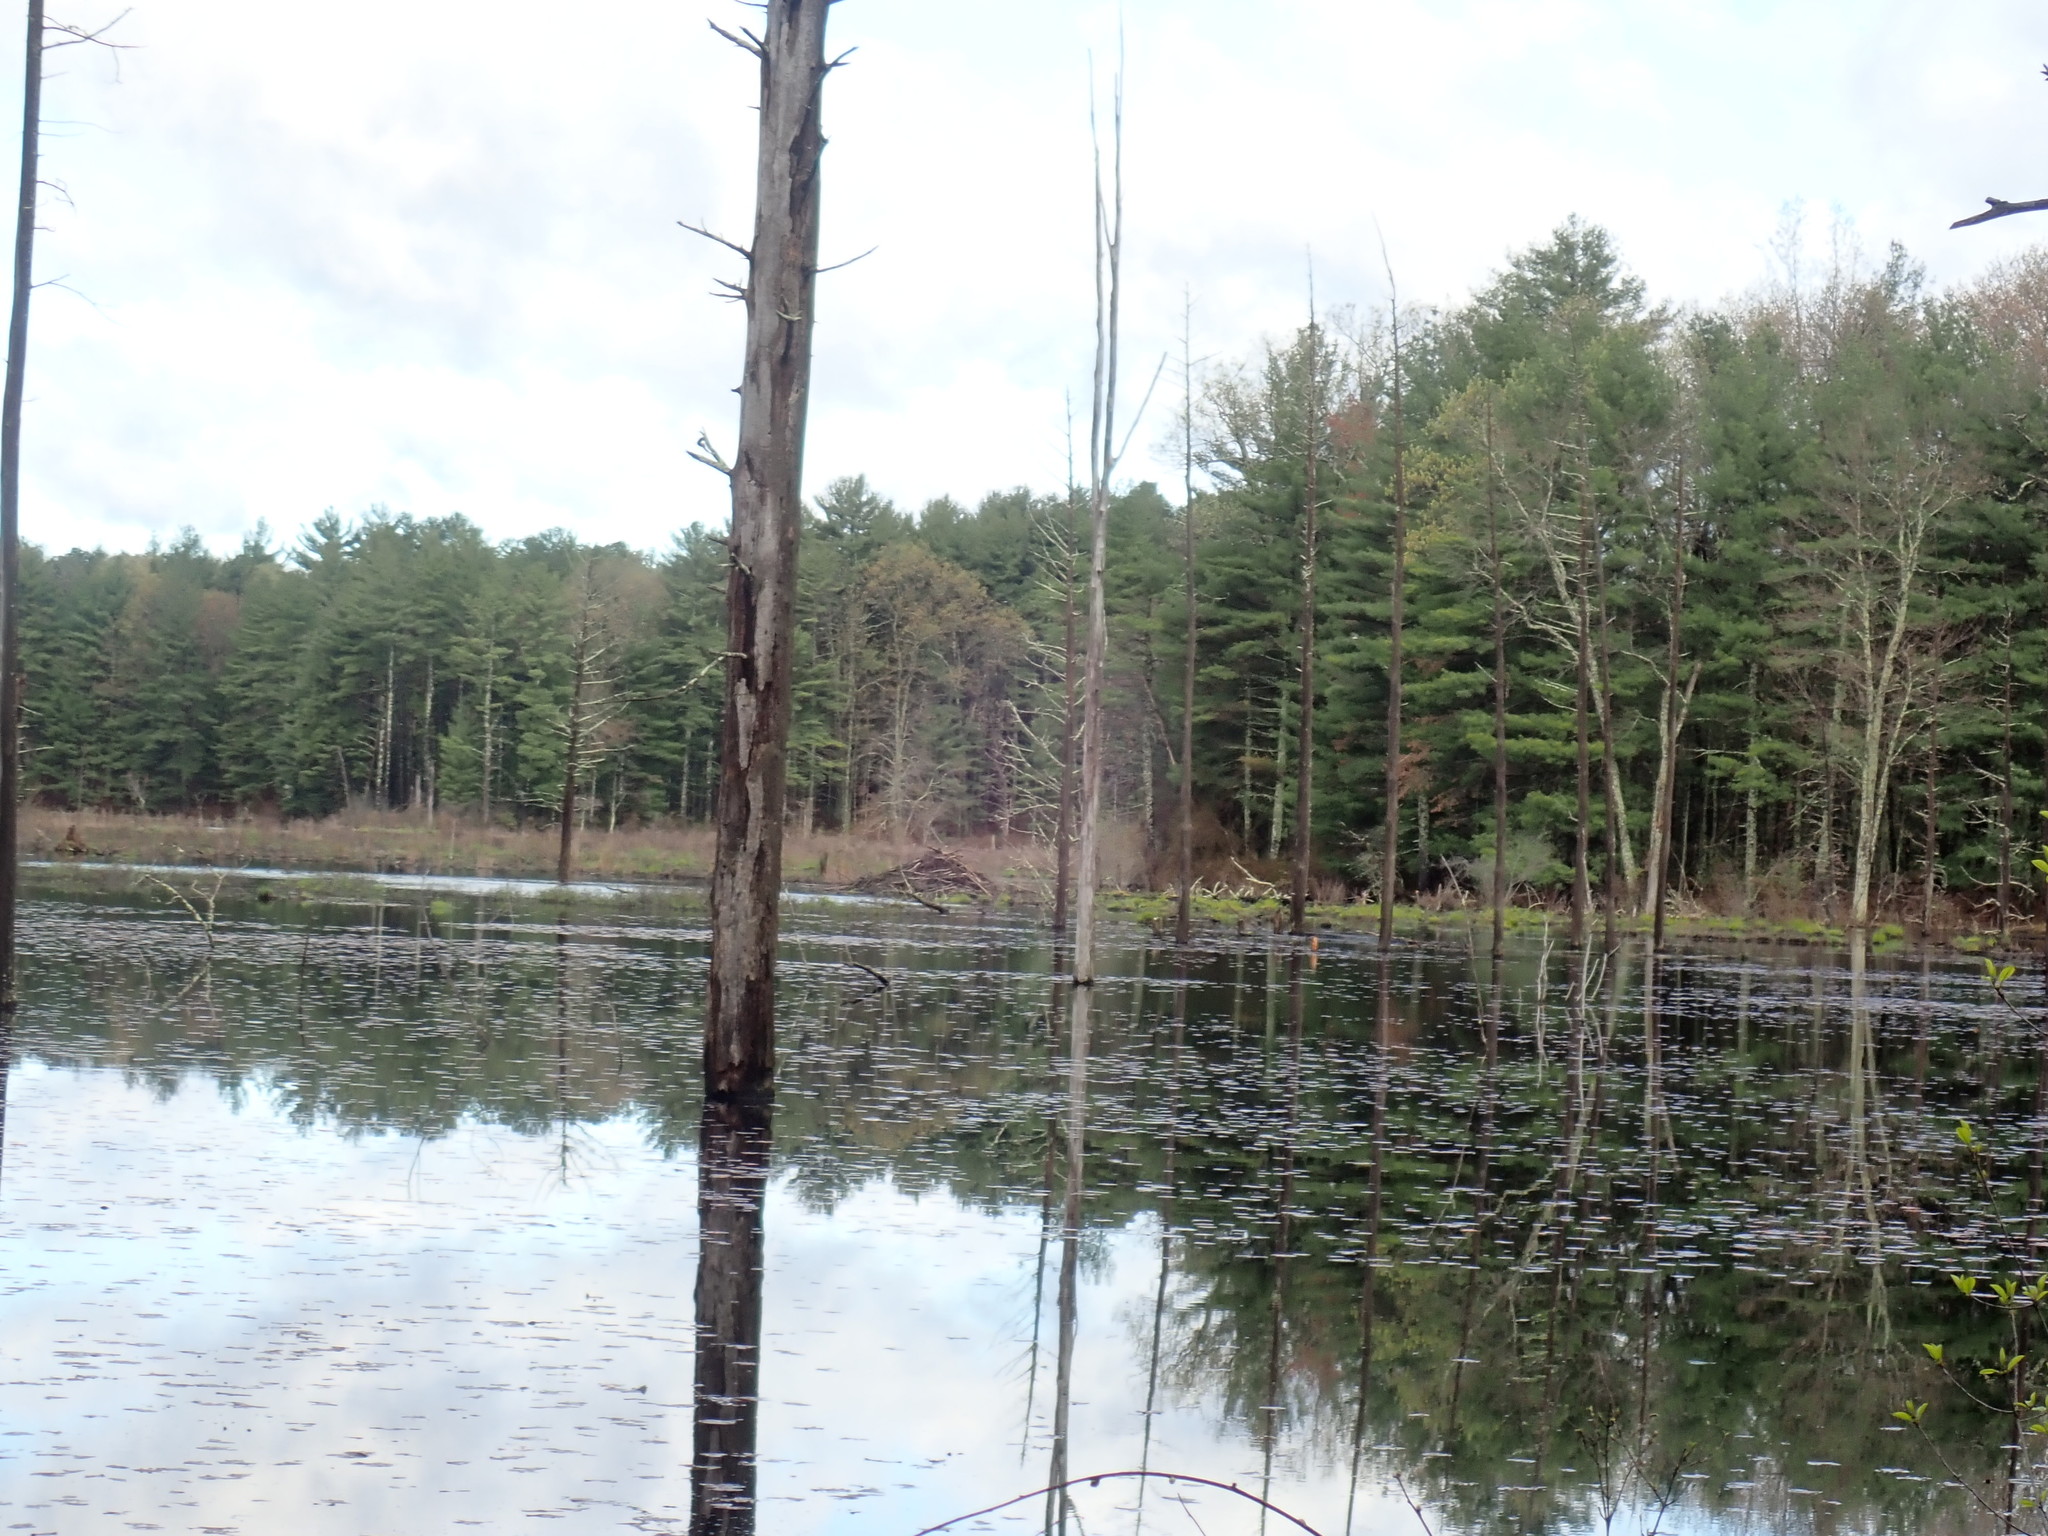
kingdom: Animalia
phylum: Chordata
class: Mammalia
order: Rodentia
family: Castoridae
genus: Castor
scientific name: Castor canadensis
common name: American beaver
